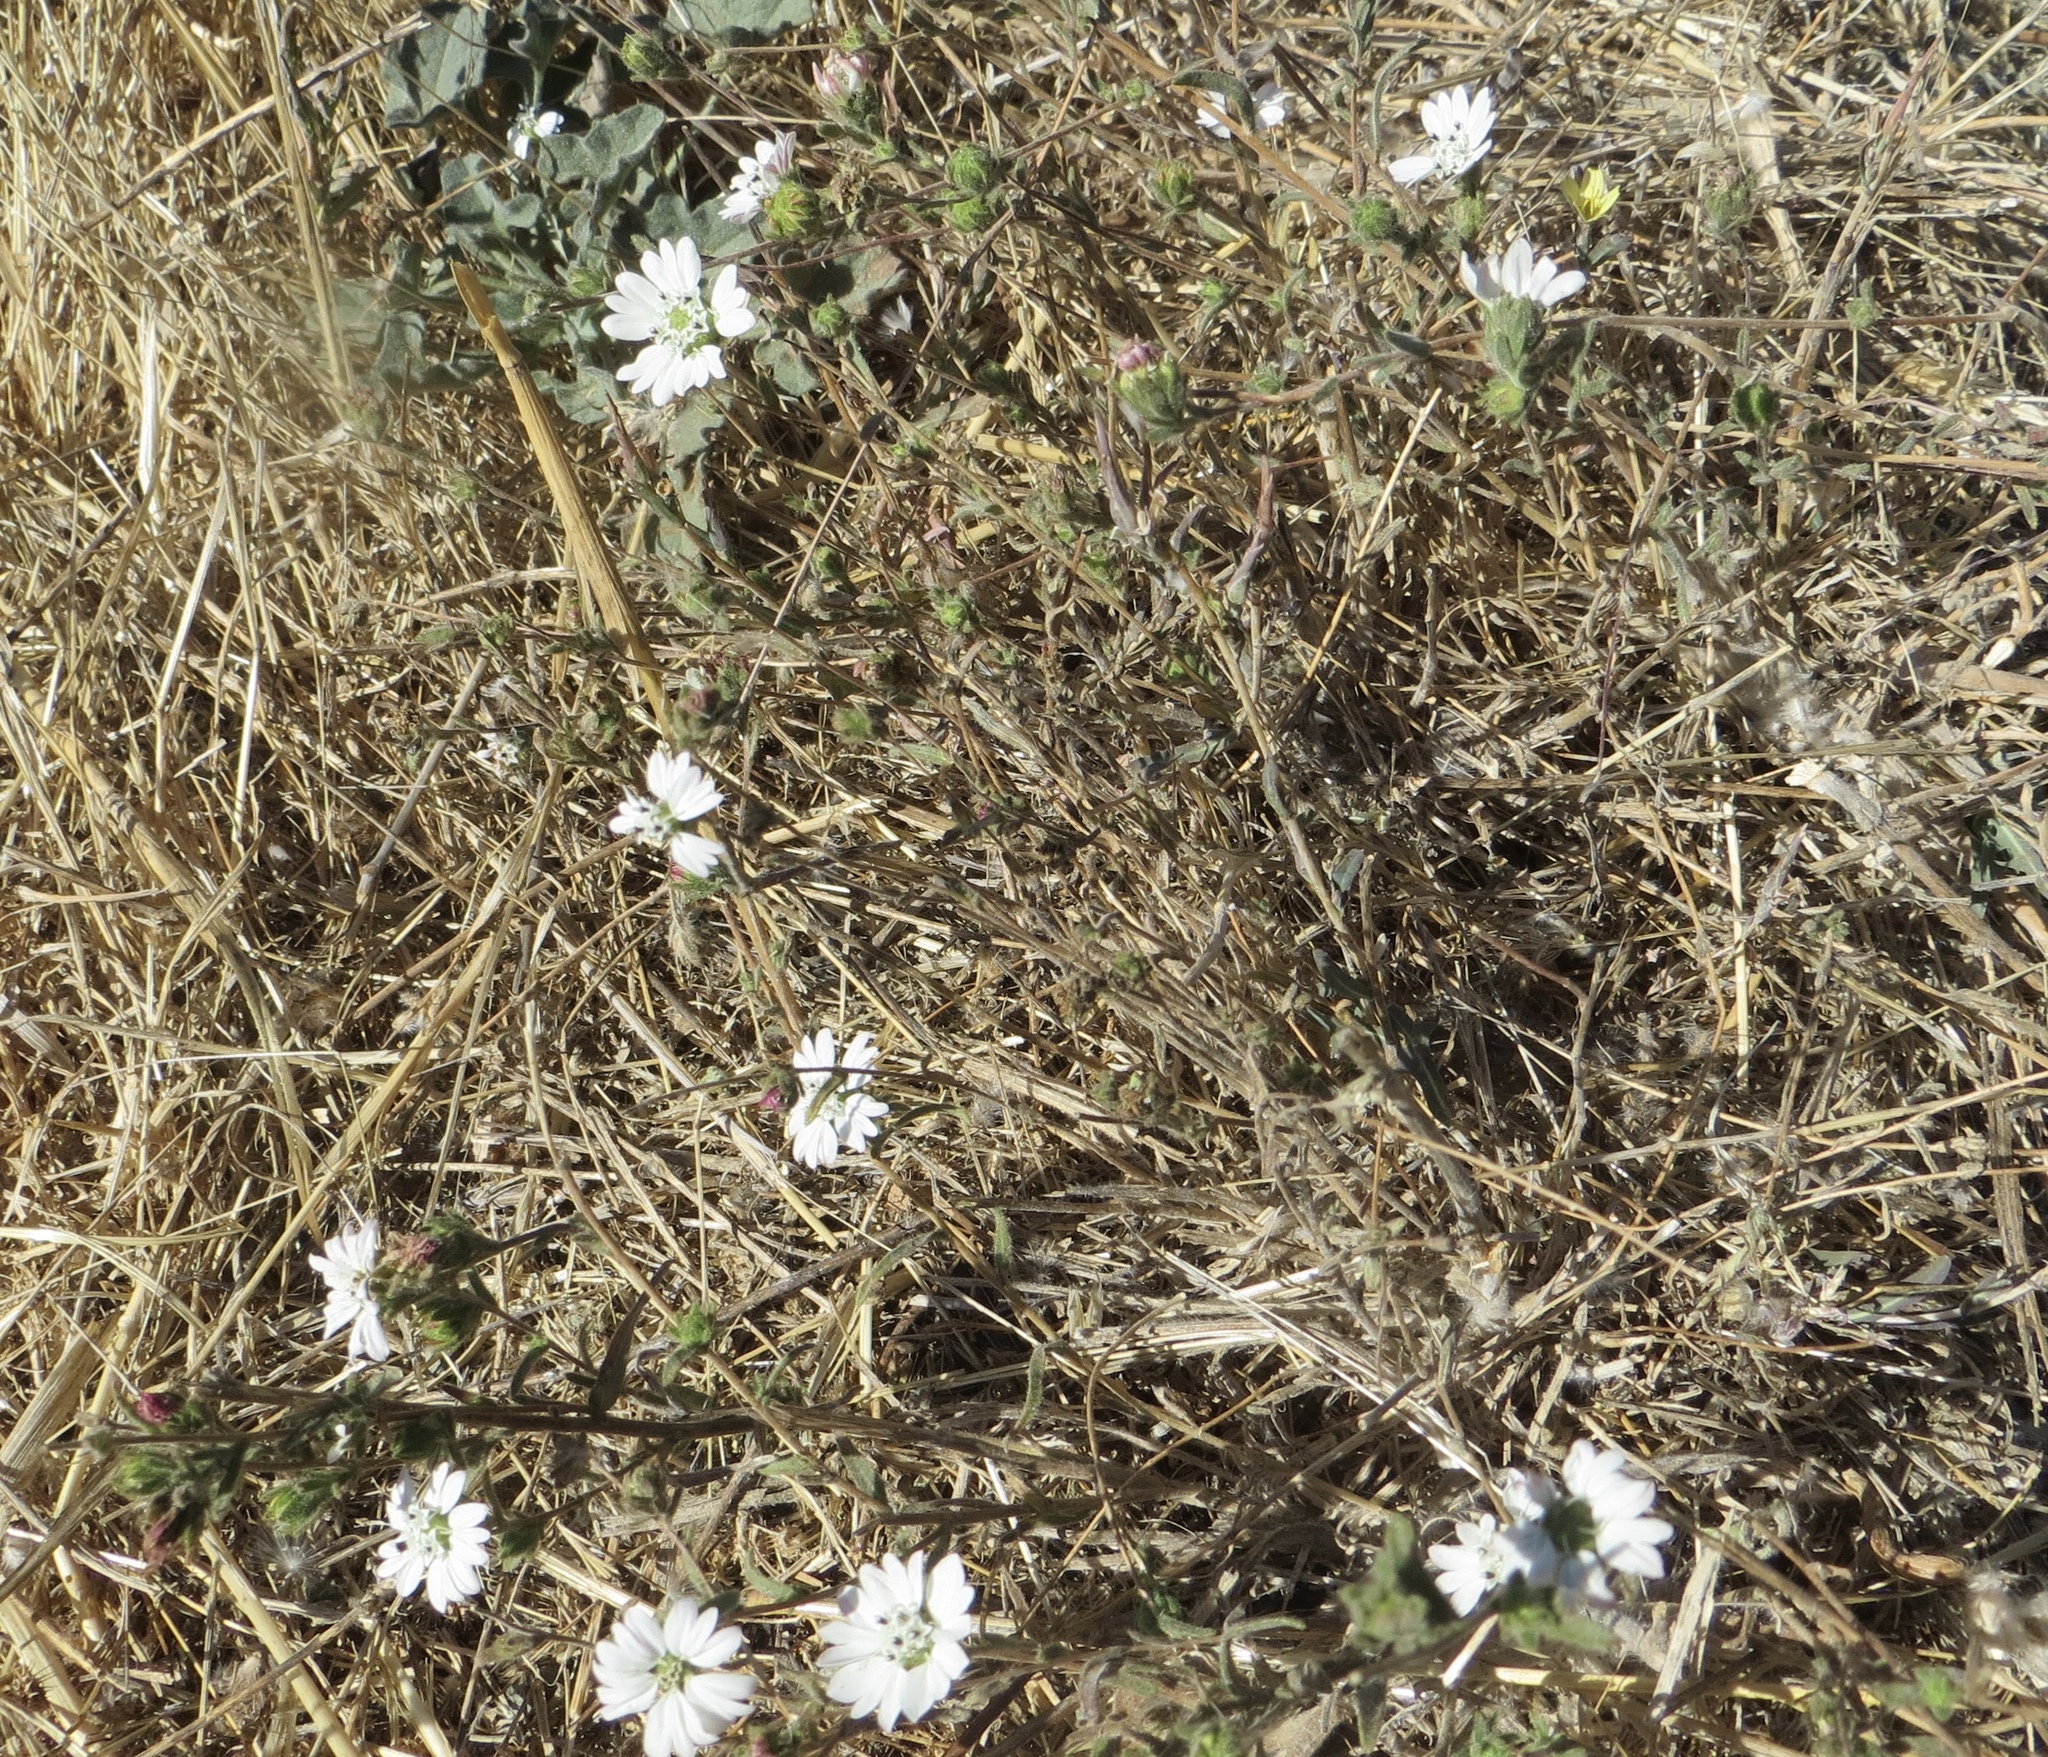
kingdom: Plantae
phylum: Tracheophyta
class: Magnoliopsida
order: Asterales
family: Asteraceae
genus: Hemizonia
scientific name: Hemizonia congesta
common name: Hayfield tarweed
